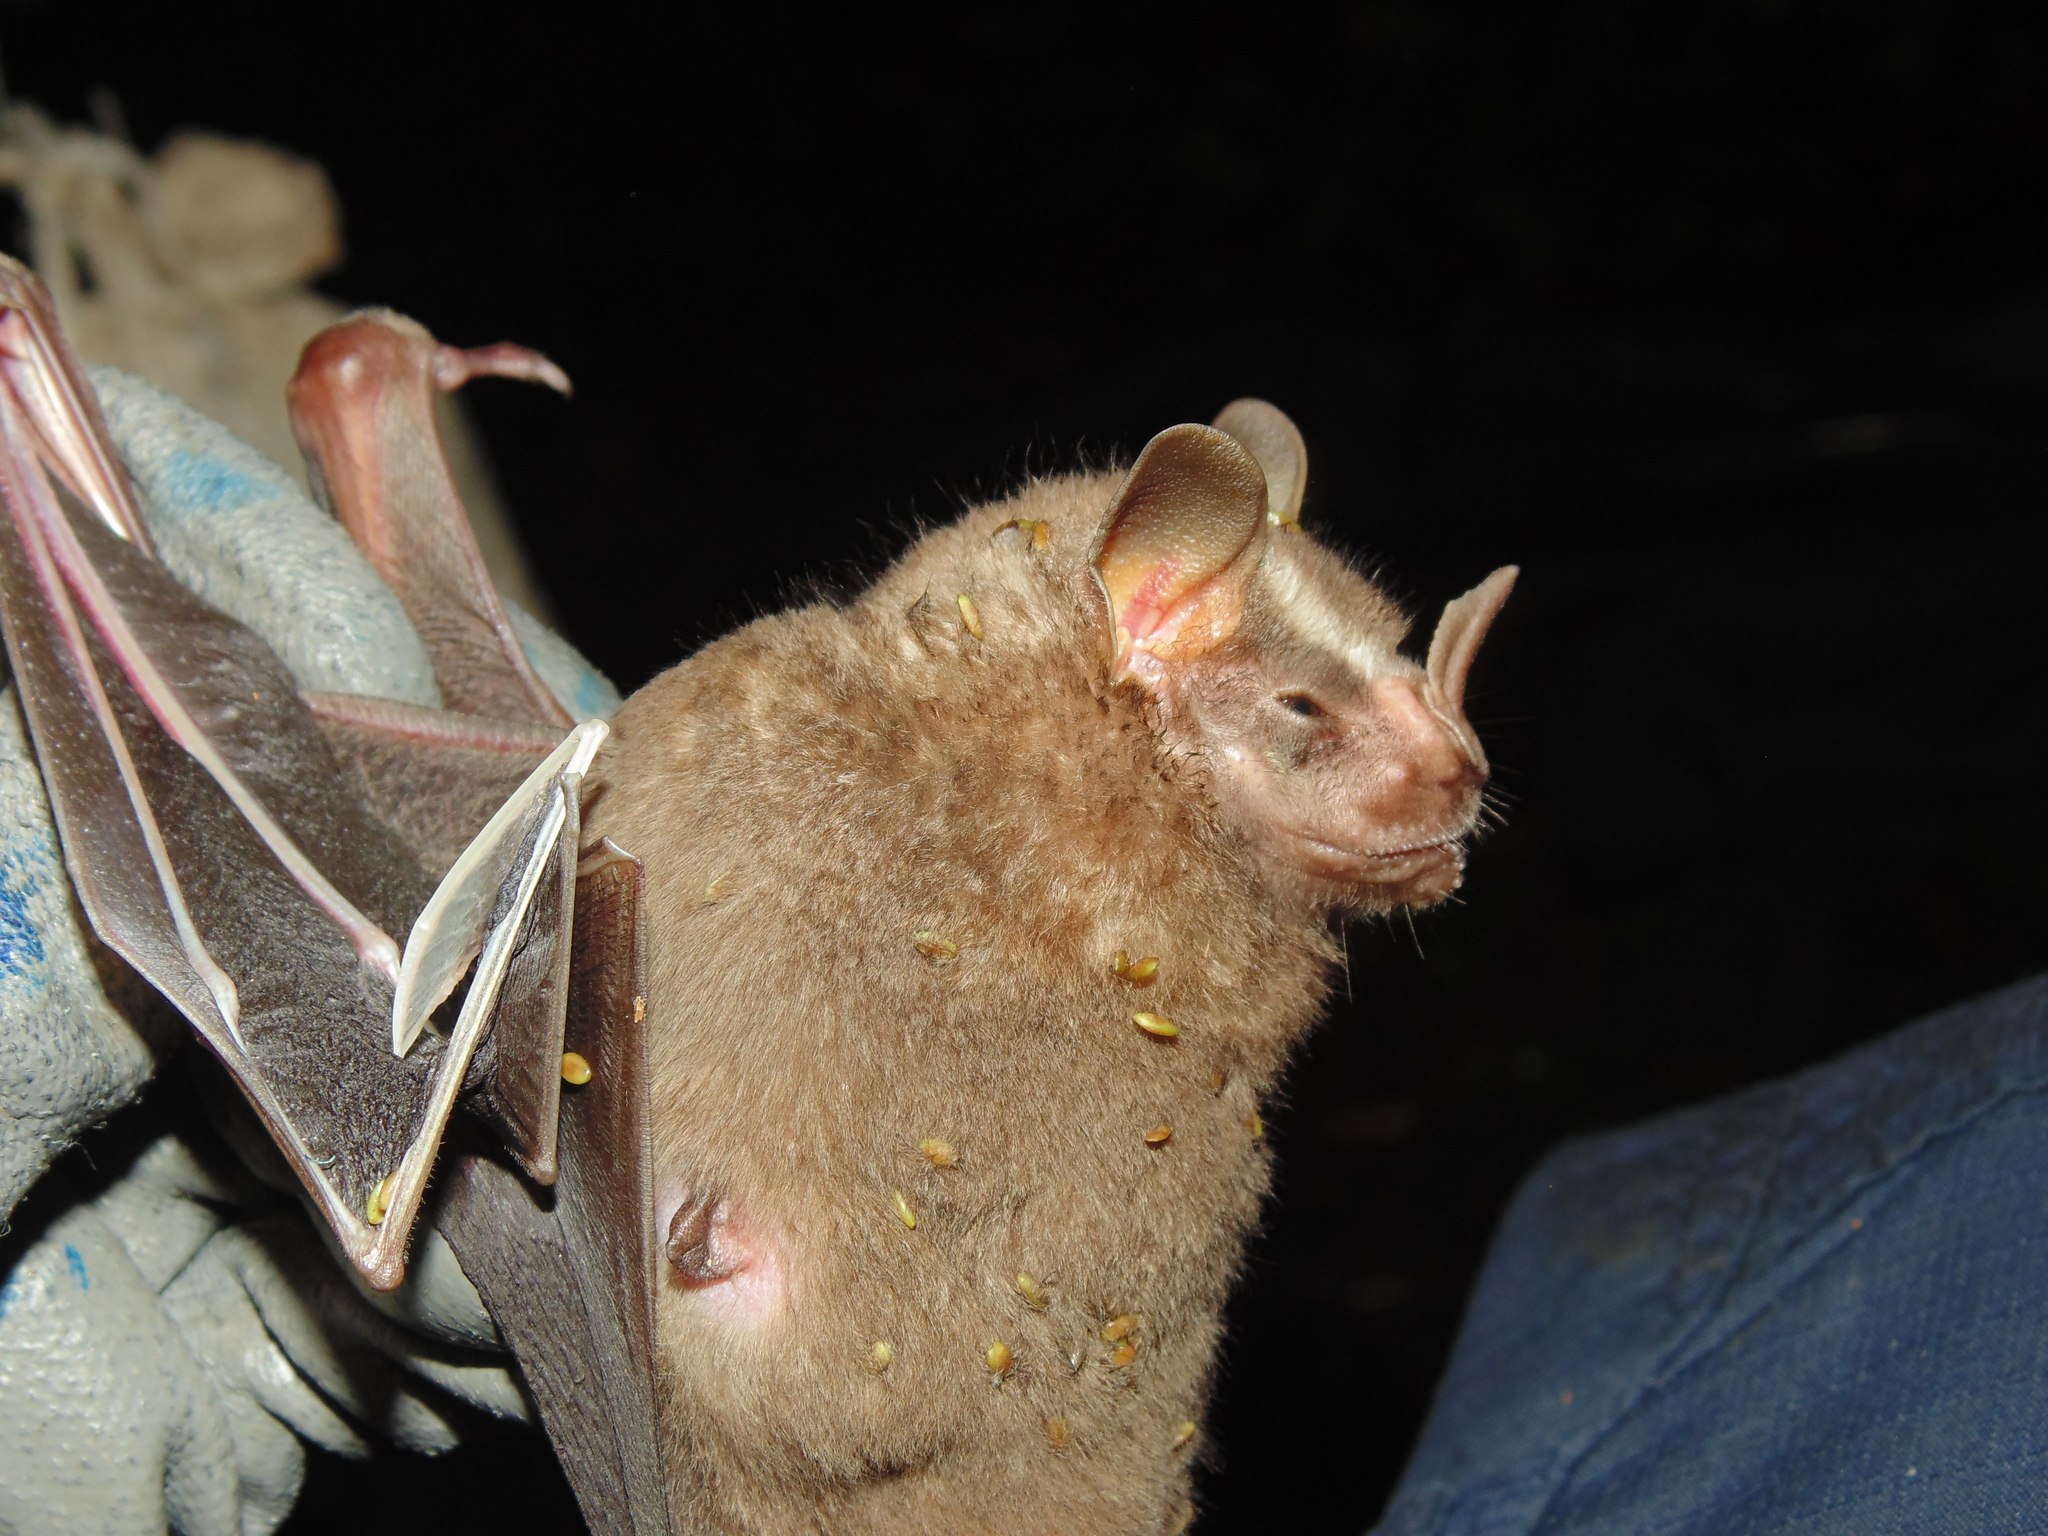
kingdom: Animalia
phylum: Chordata
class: Mammalia
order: Chiroptera
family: Phyllostomidae
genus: Artibeus
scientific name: Artibeus lituratus
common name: Great fruit-eating bat
